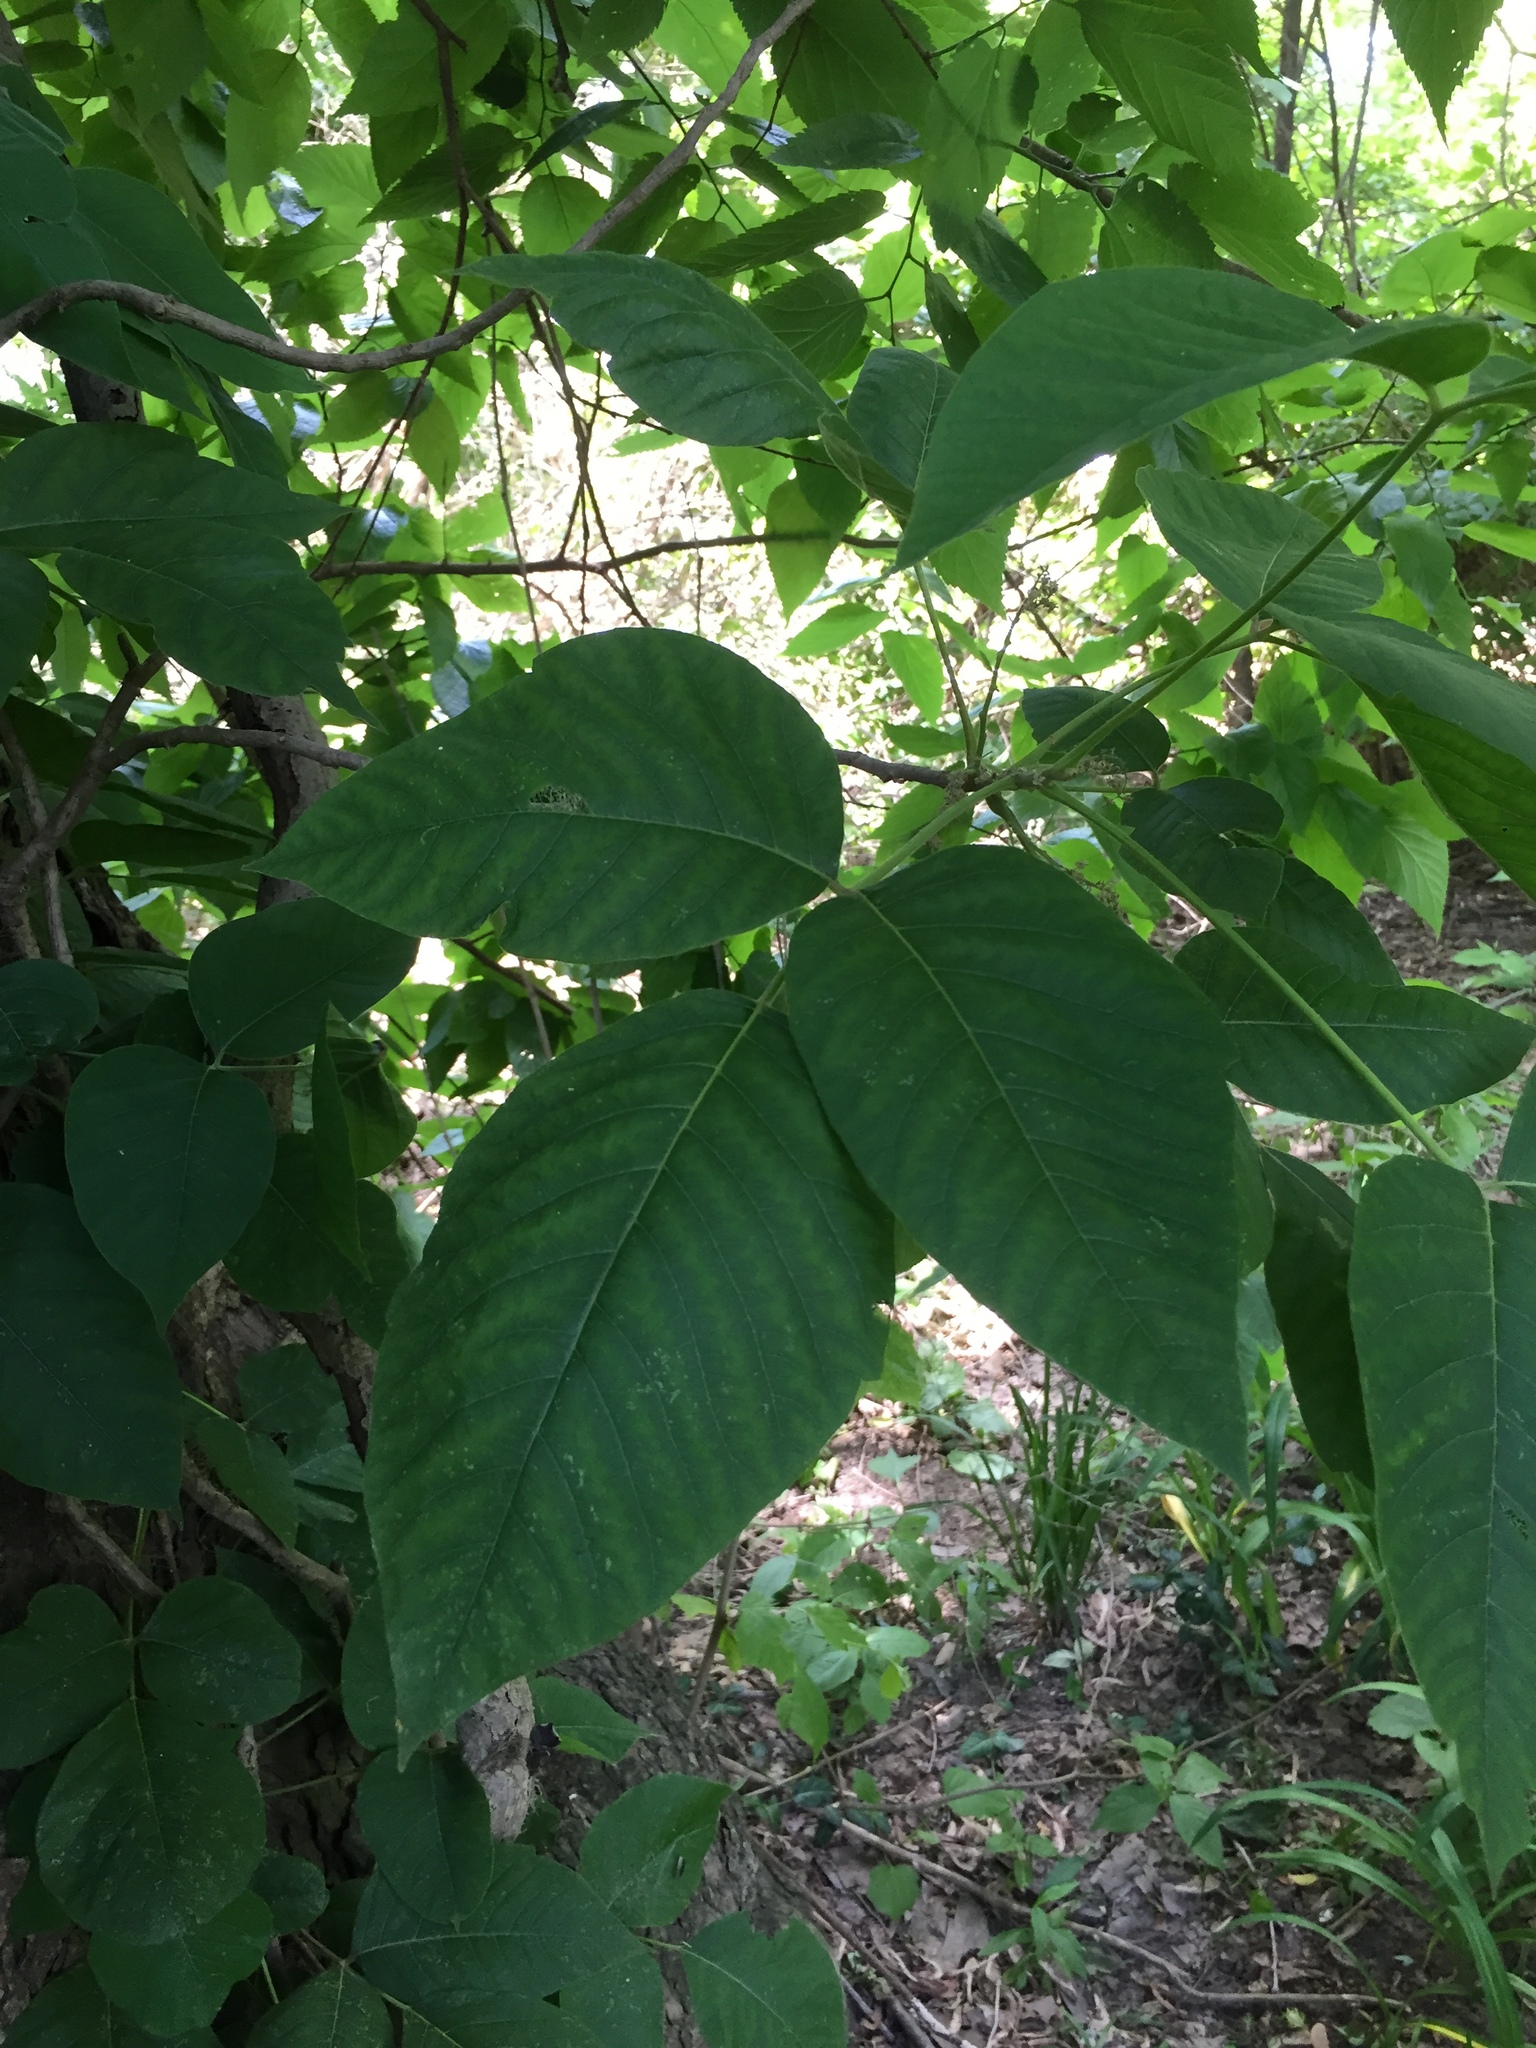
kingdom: Plantae
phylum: Tracheophyta
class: Magnoliopsida
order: Sapindales
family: Anacardiaceae
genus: Toxicodendron
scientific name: Toxicodendron radicans
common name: Poison ivy
